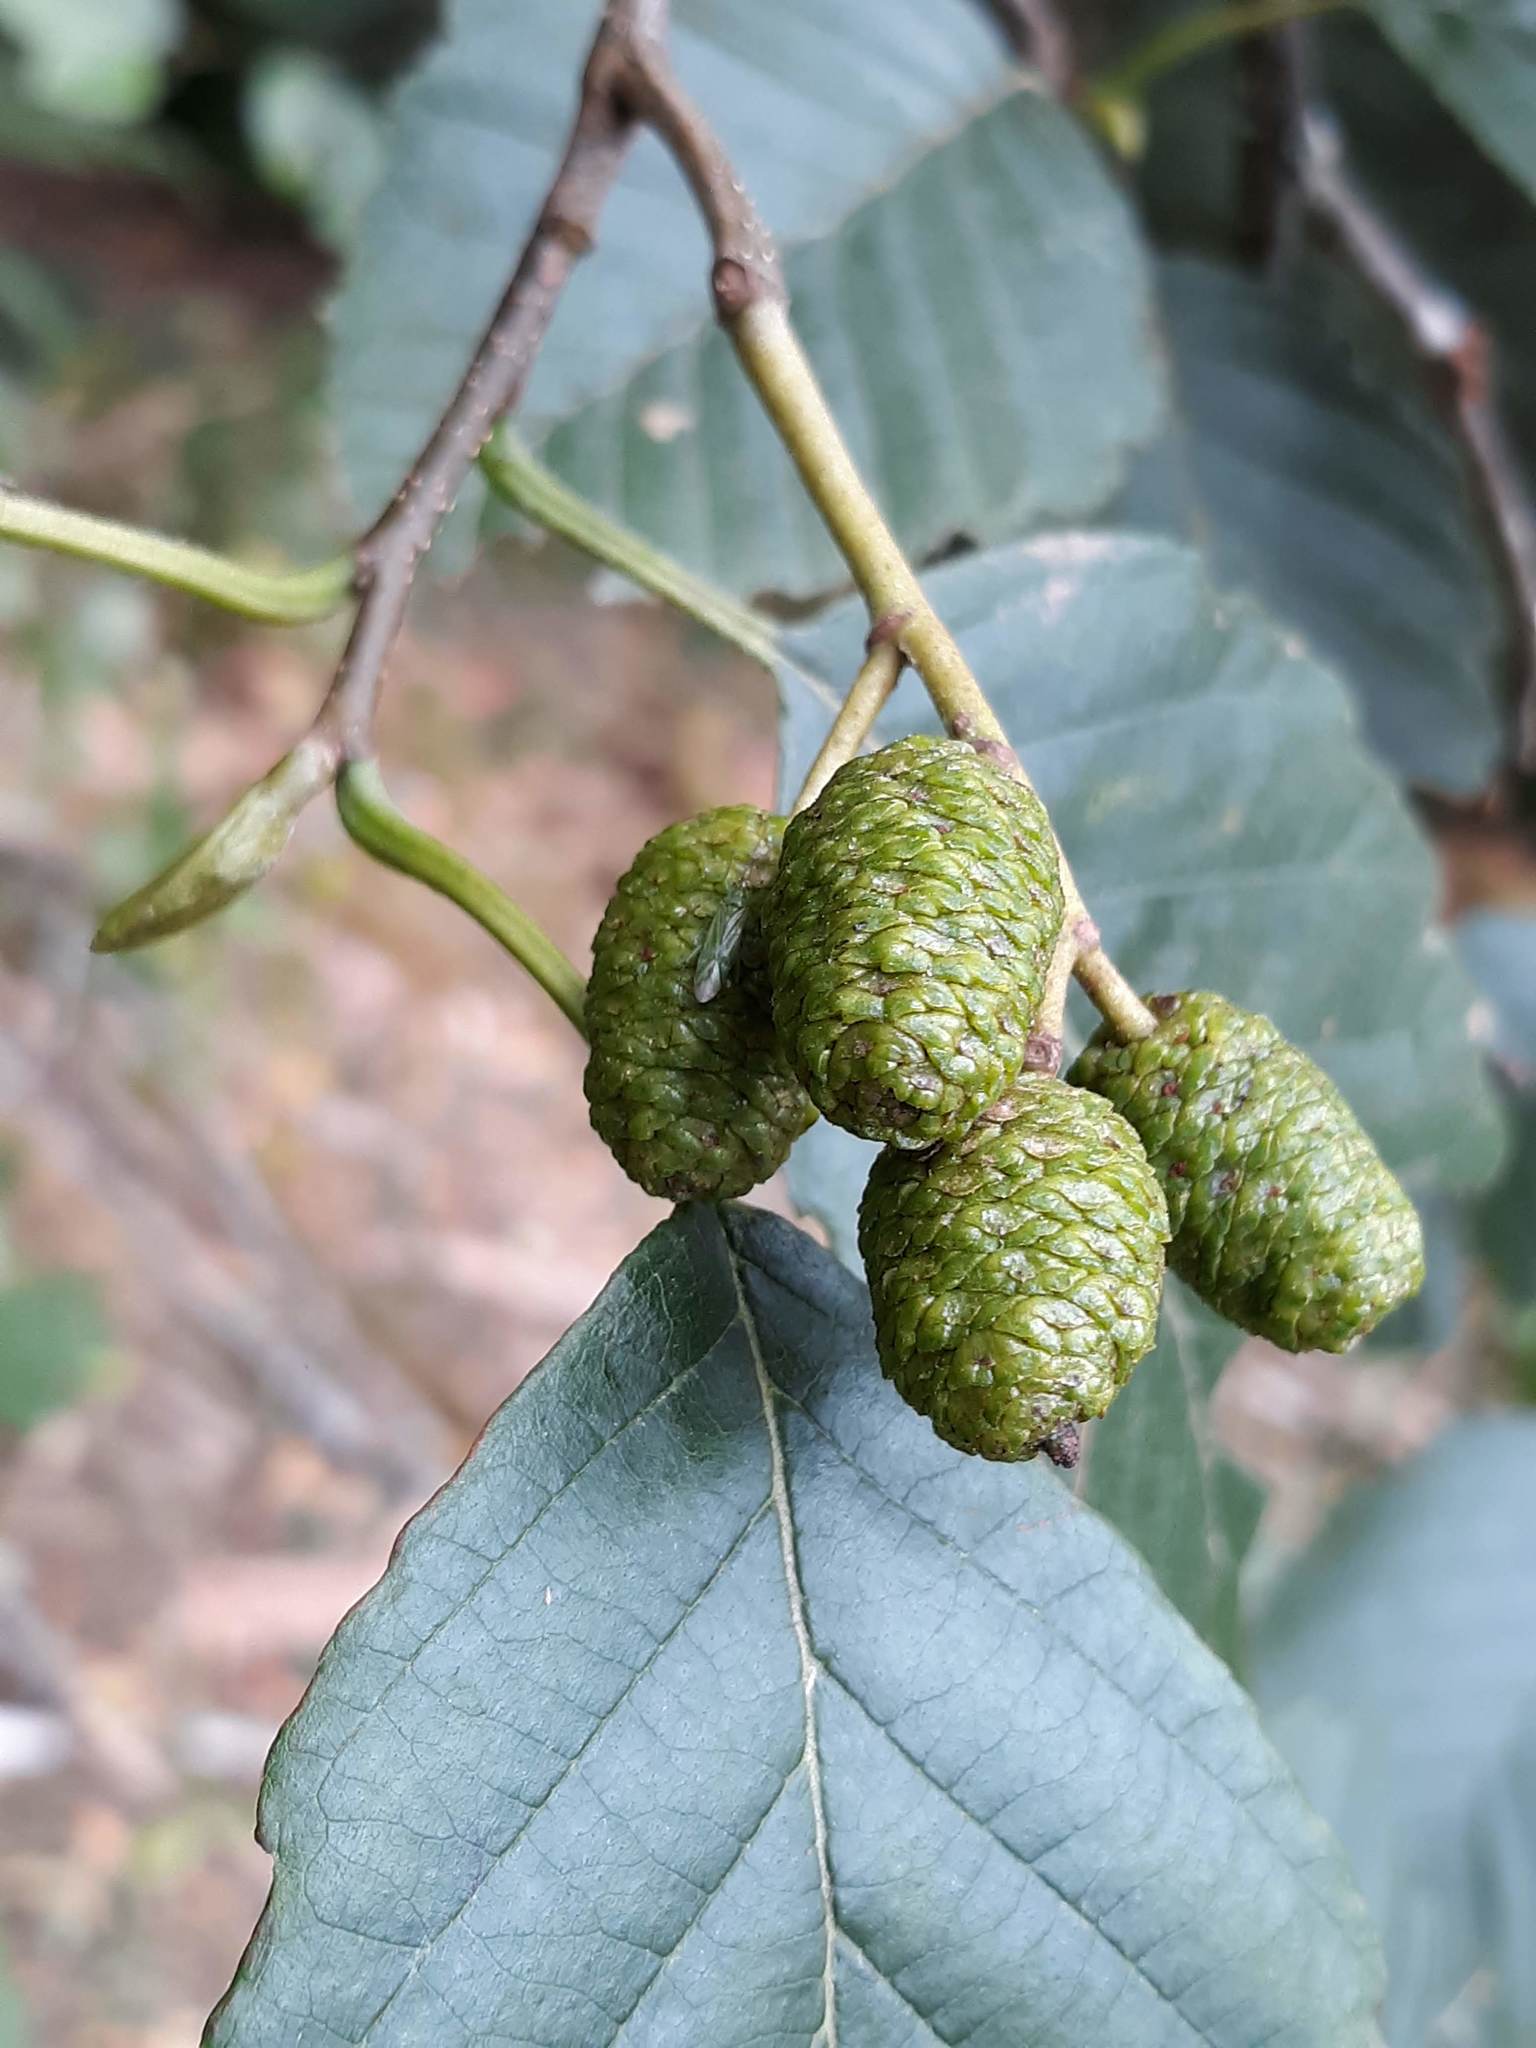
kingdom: Plantae
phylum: Tracheophyta
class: Magnoliopsida
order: Fagales
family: Betulaceae
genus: Alnus
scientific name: Alnus rubra
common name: Red alder
